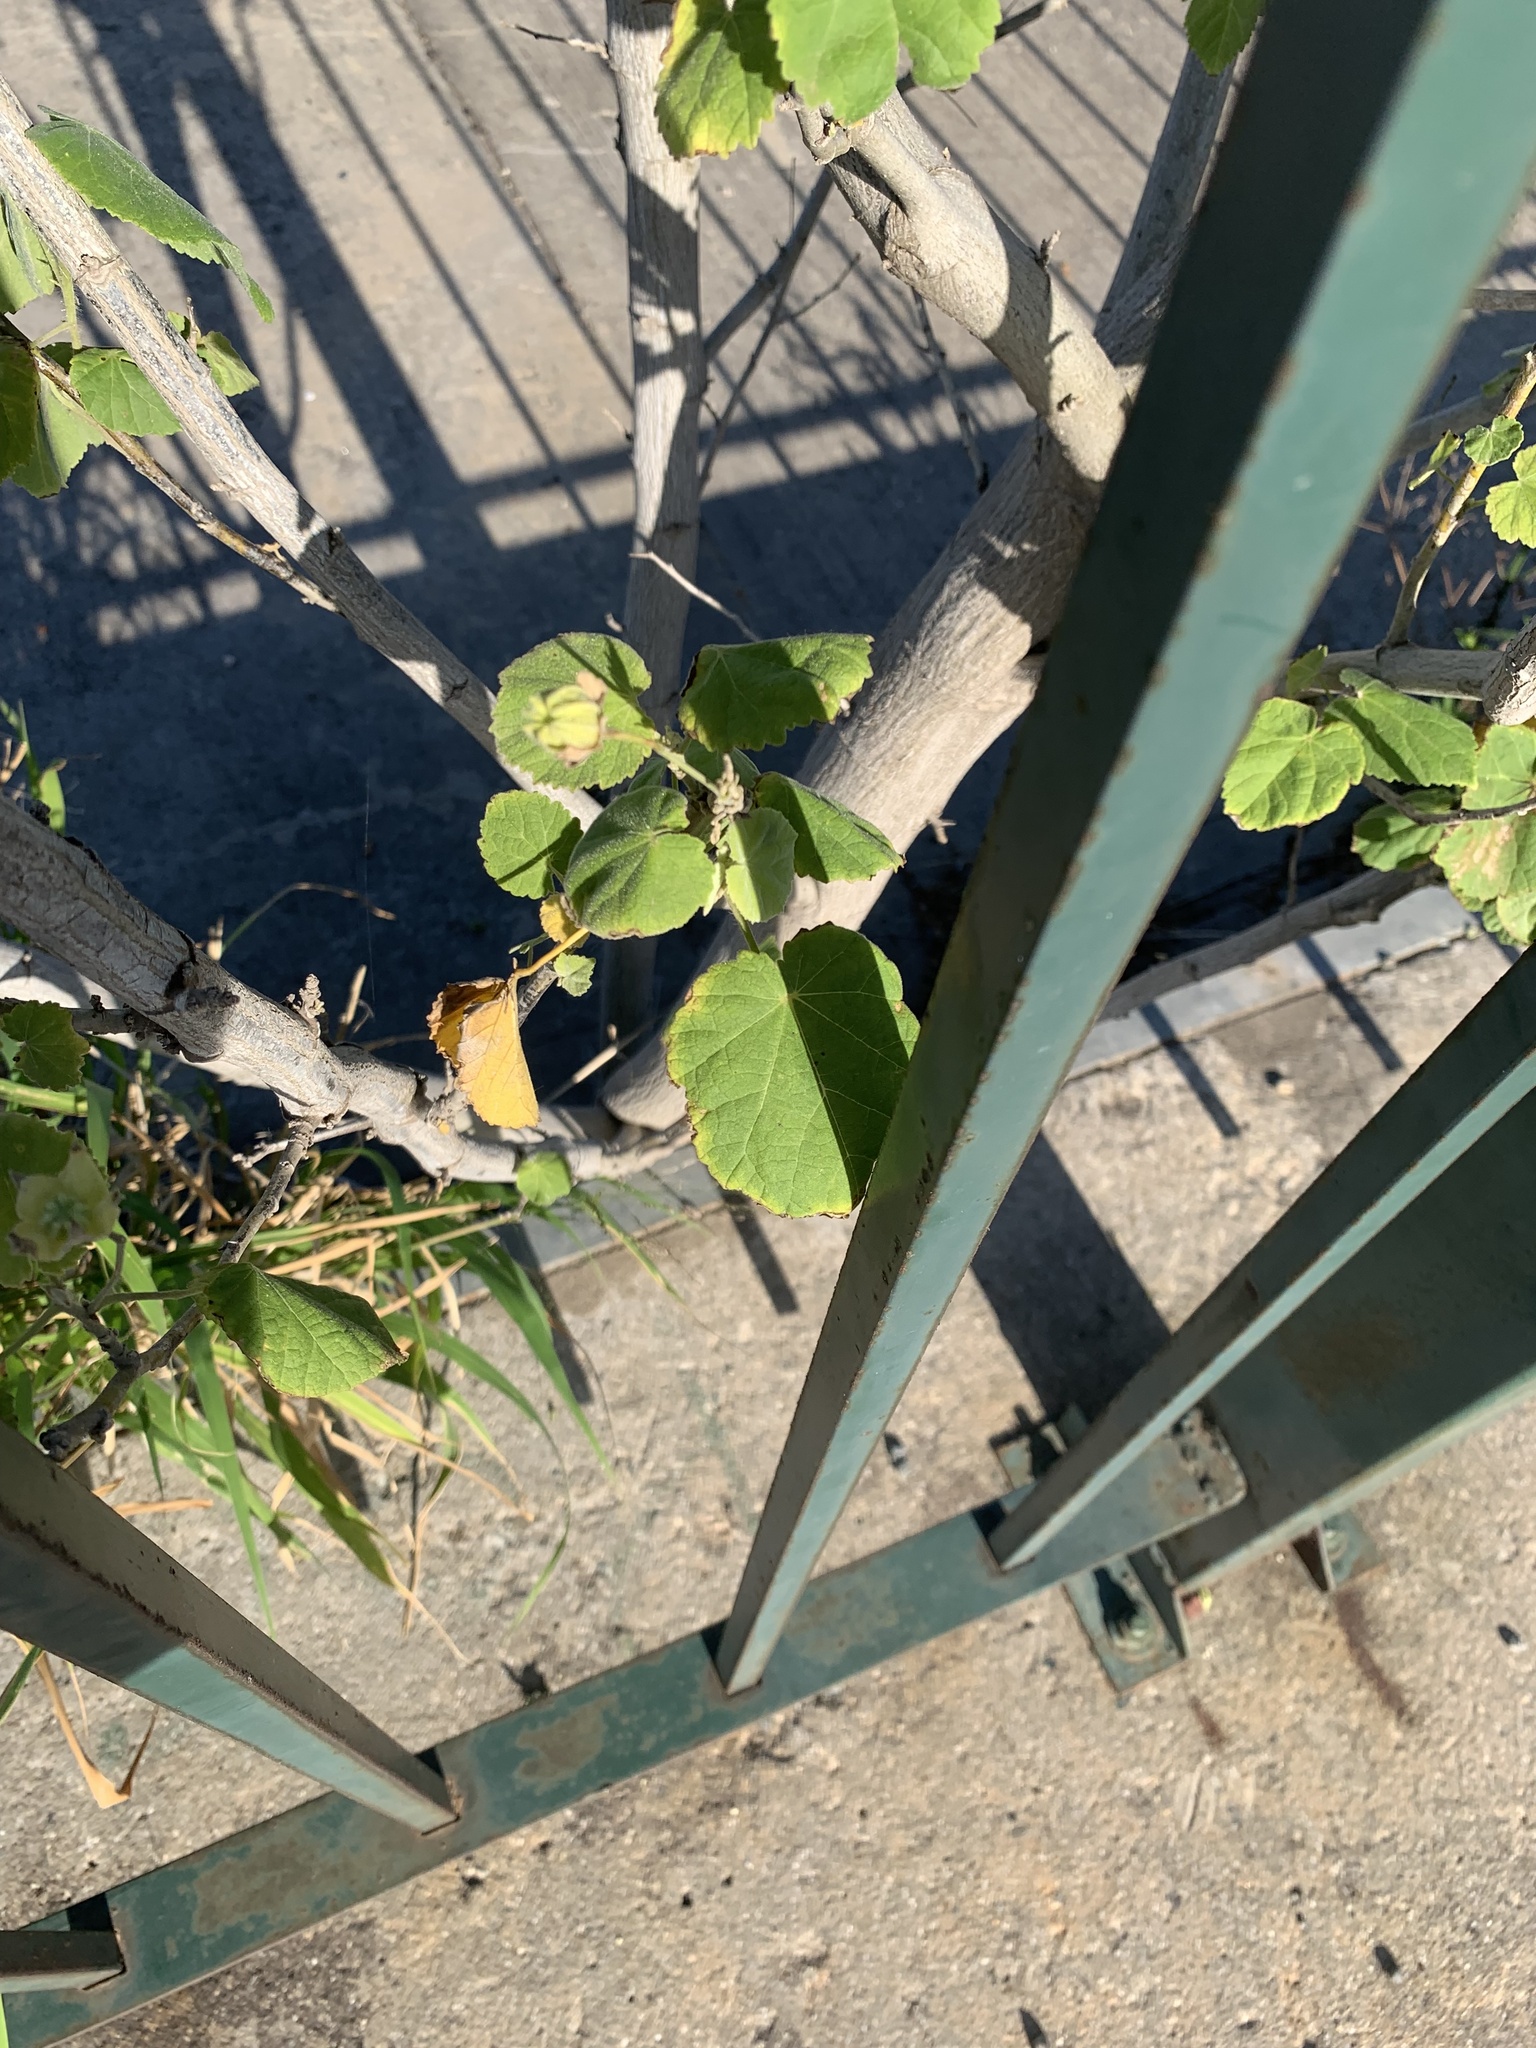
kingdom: Plantae
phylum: Tracheophyta
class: Magnoliopsida
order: Malvales
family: Malvaceae
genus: Abutilon
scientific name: Abutilon grandifolium
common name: Hairy abutilon
